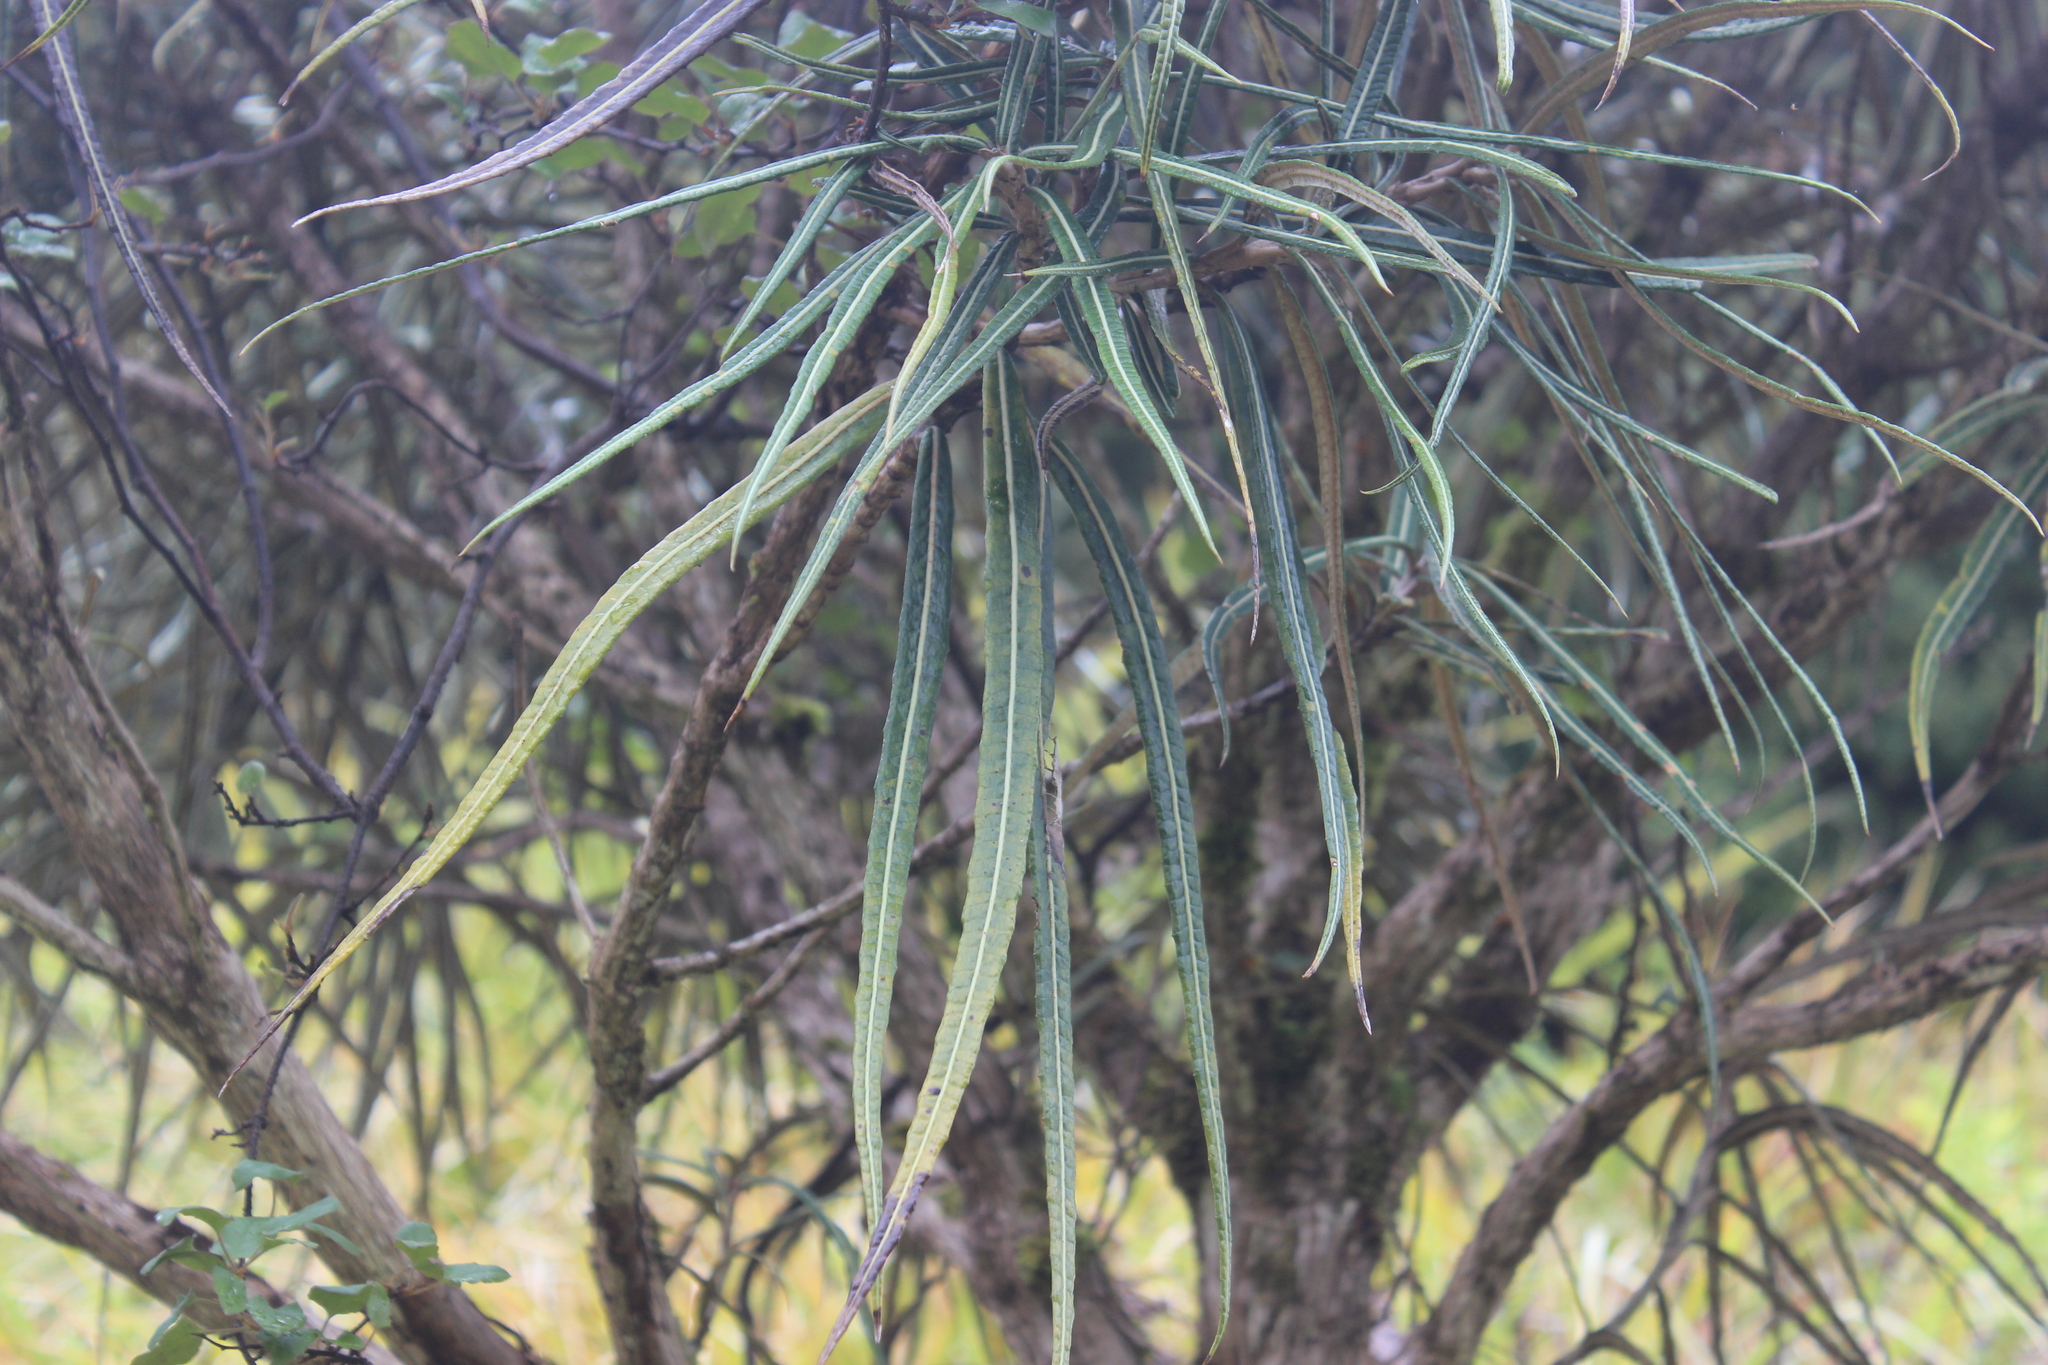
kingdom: Plantae
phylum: Tracheophyta
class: Magnoliopsida
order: Asterales
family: Asteraceae
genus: Olearia
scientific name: Olearia lacunosa
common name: Lancewood tree daisy
